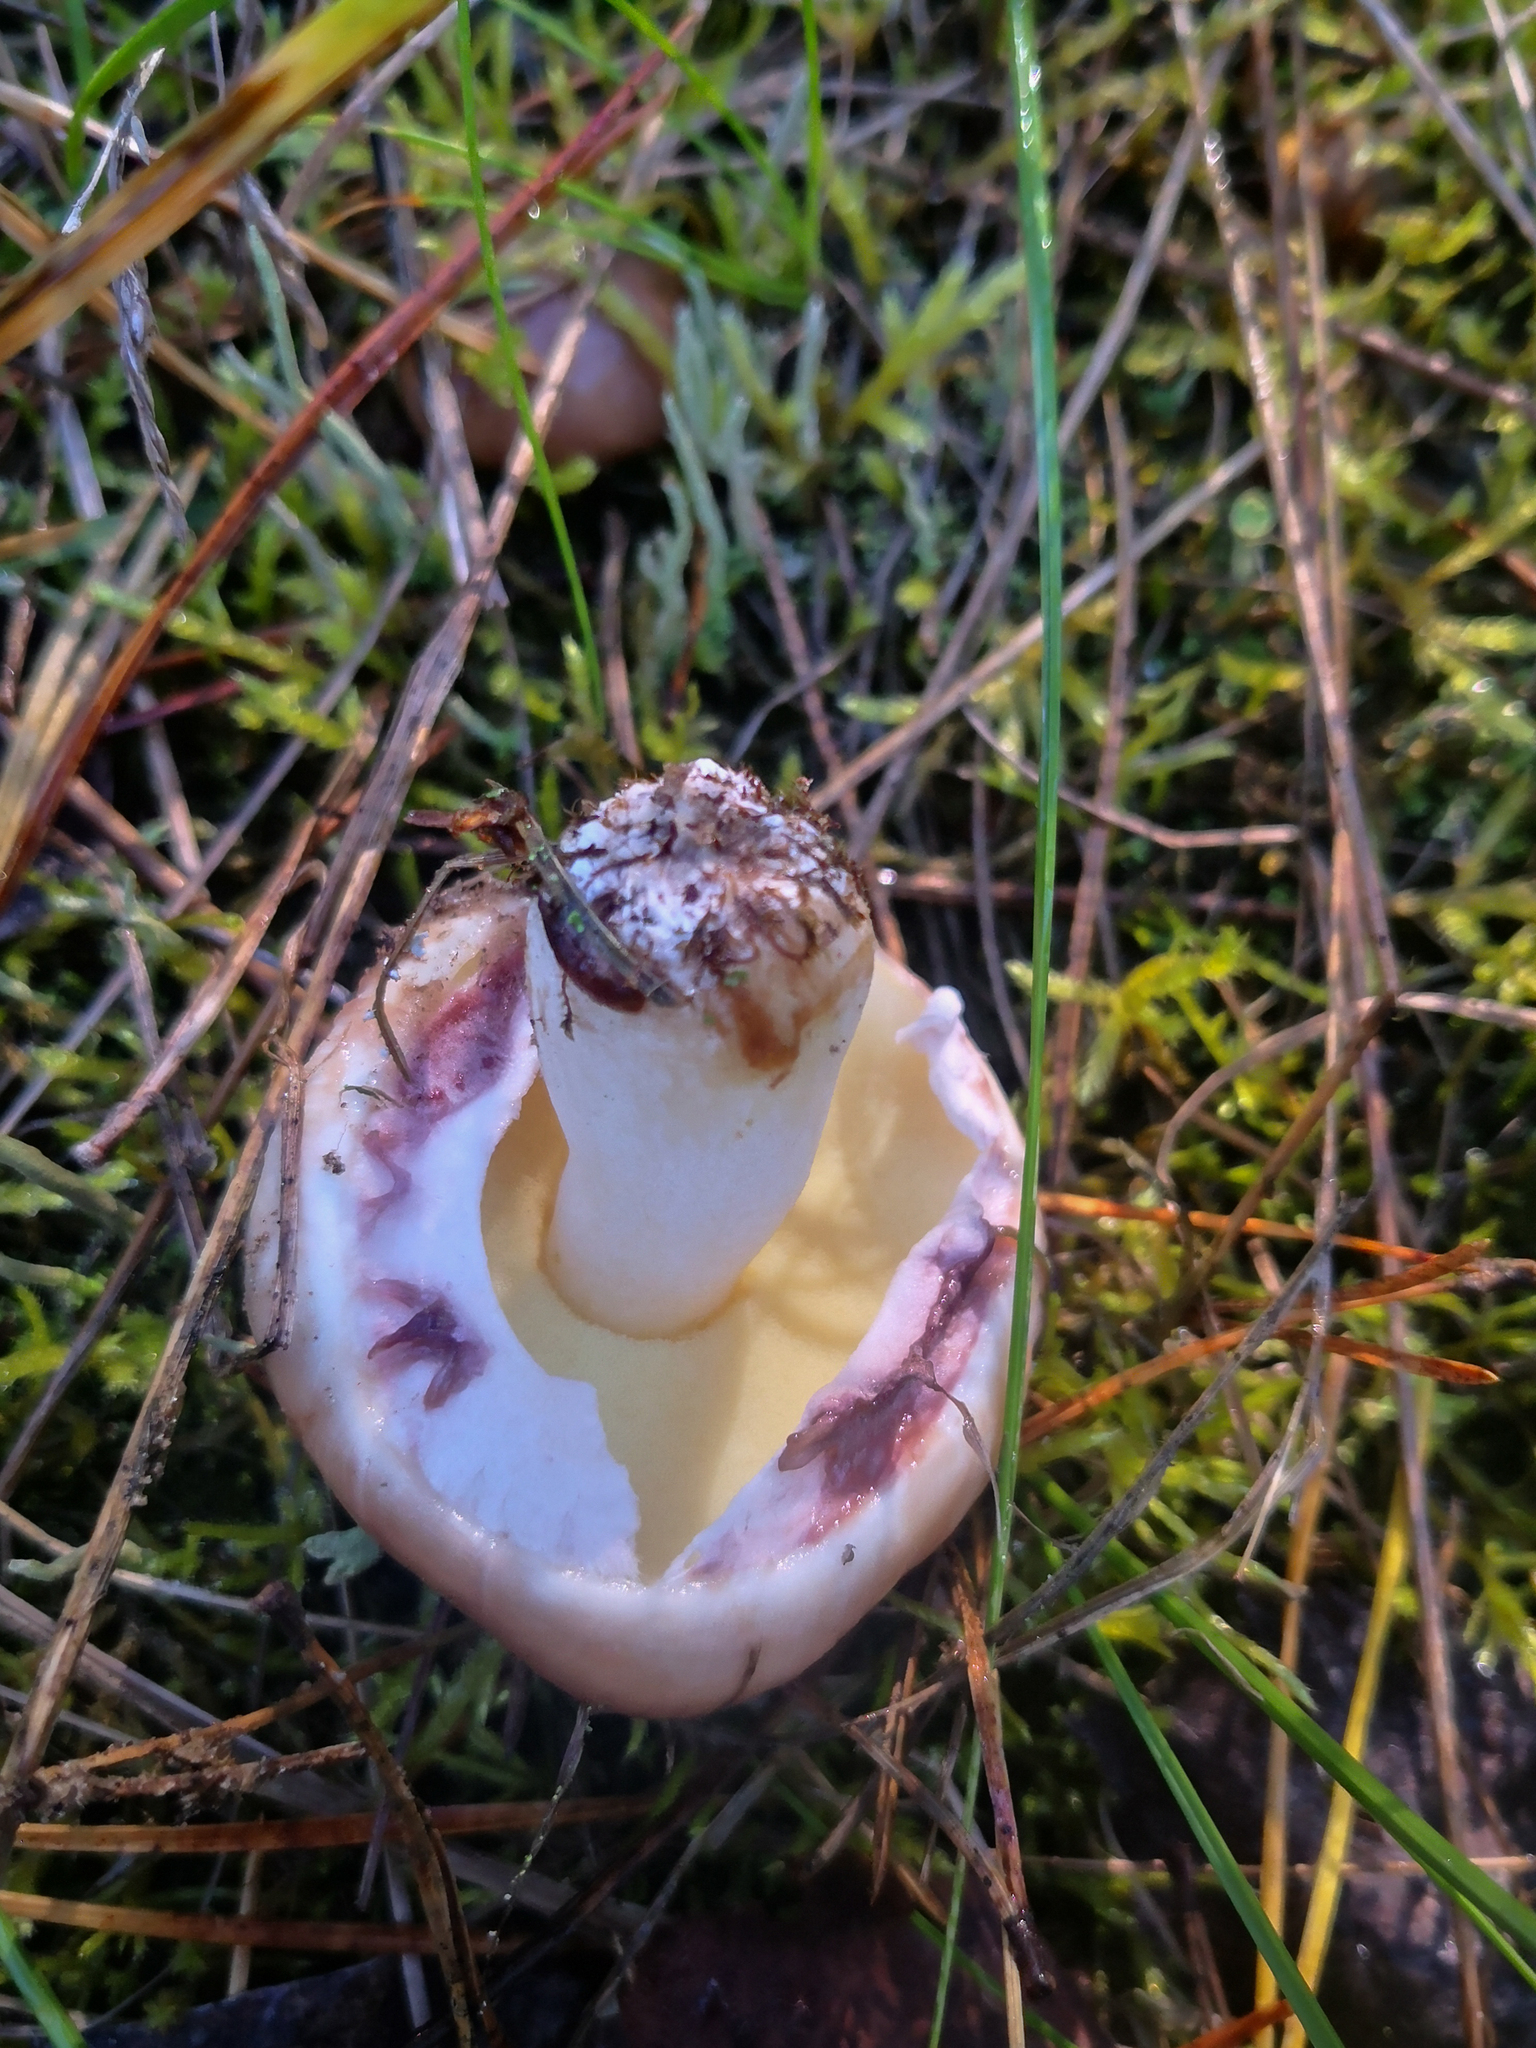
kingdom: Fungi
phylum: Basidiomycota
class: Agaricomycetes
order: Boletales
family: Suillaceae
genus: Suillus
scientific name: Suillus luteus
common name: Slippery jack
